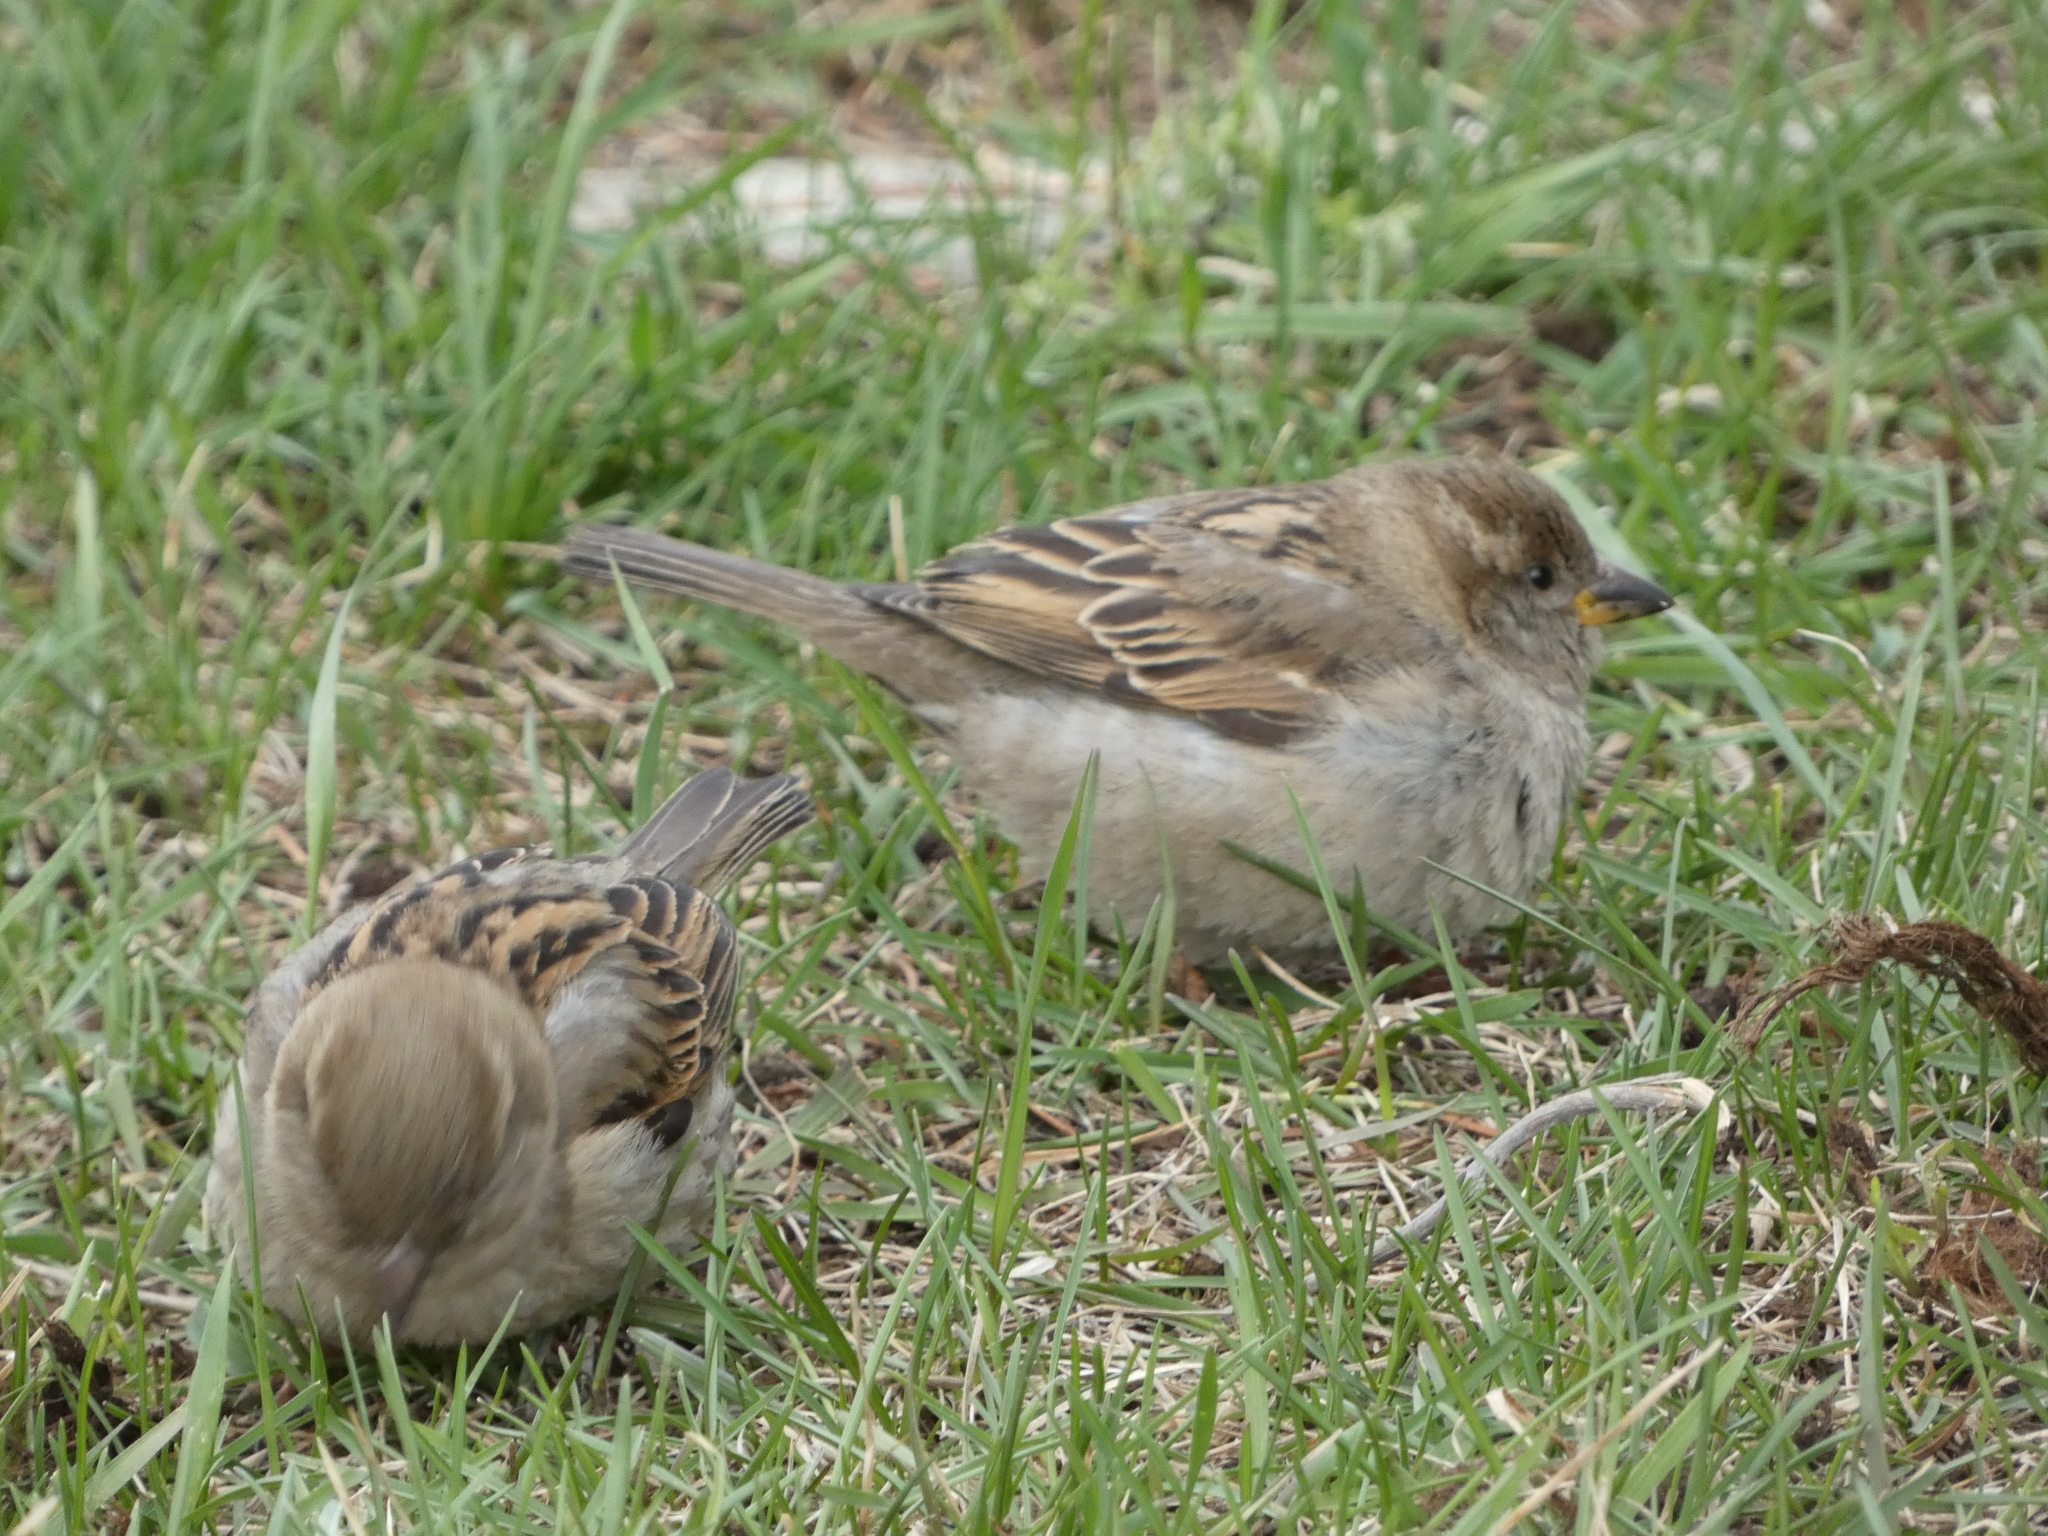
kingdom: Animalia
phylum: Chordata
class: Aves
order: Passeriformes
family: Passeridae
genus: Passer
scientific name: Passer domesticus
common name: House sparrow
